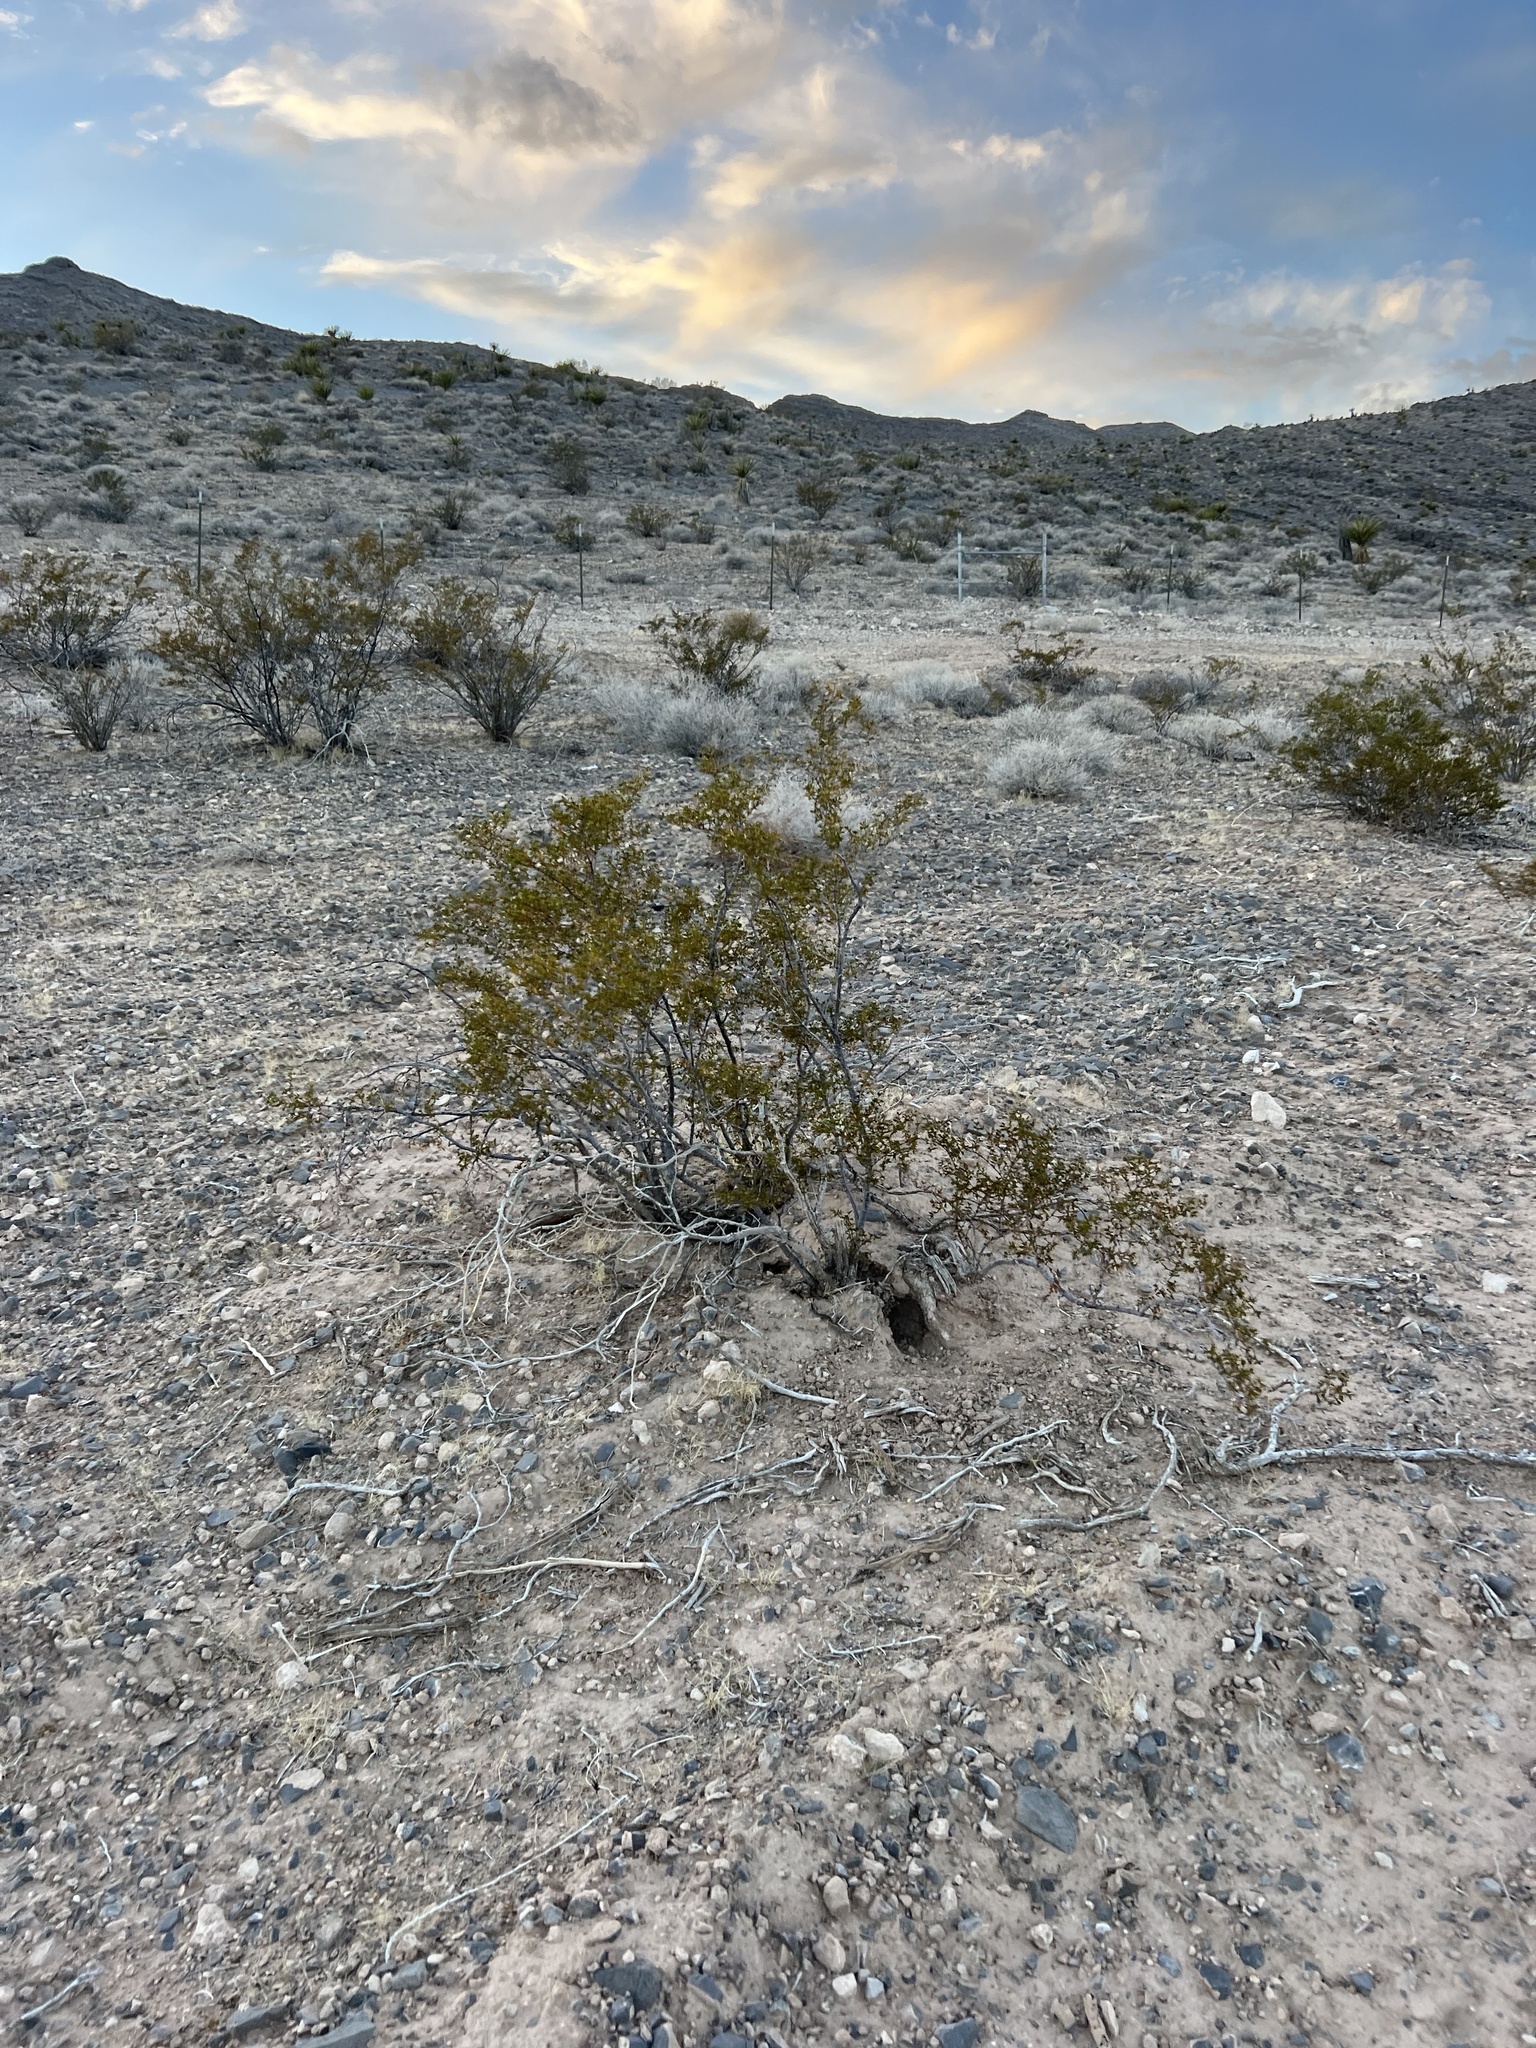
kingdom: Plantae
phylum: Tracheophyta
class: Magnoliopsida
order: Zygophyllales
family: Zygophyllaceae
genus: Larrea
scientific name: Larrea tridentata
